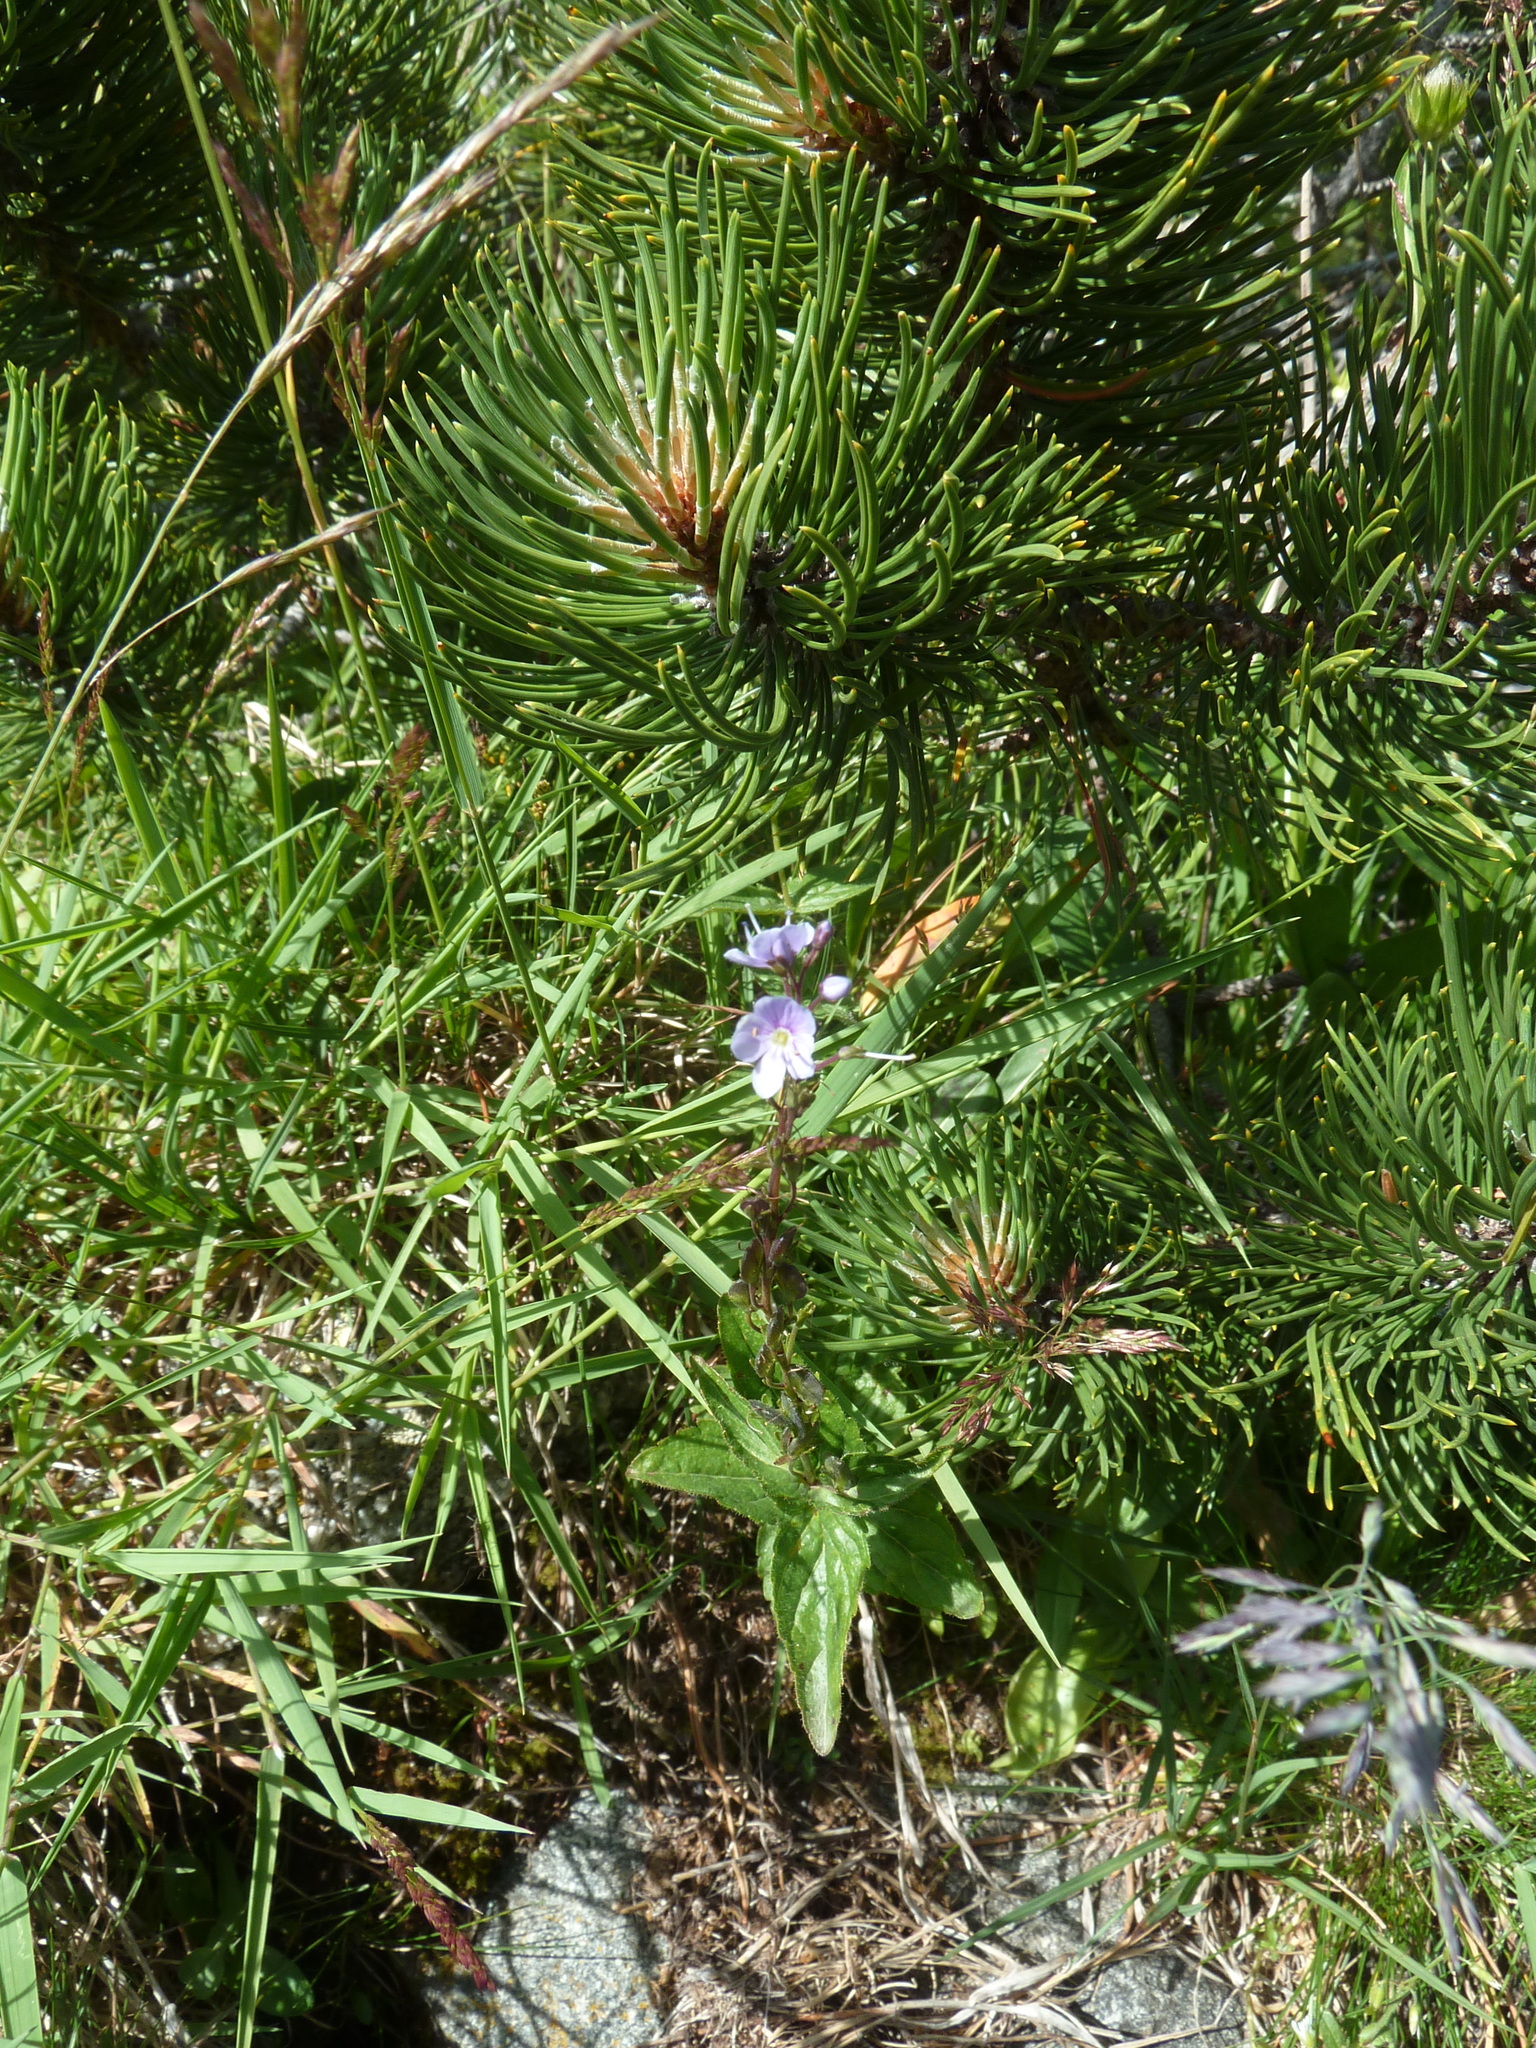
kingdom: Plantae
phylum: Tracheophyta
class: Magnoliopsida
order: Lamiales
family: Plantaginaceae
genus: Veronica
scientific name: Veronica ponae
